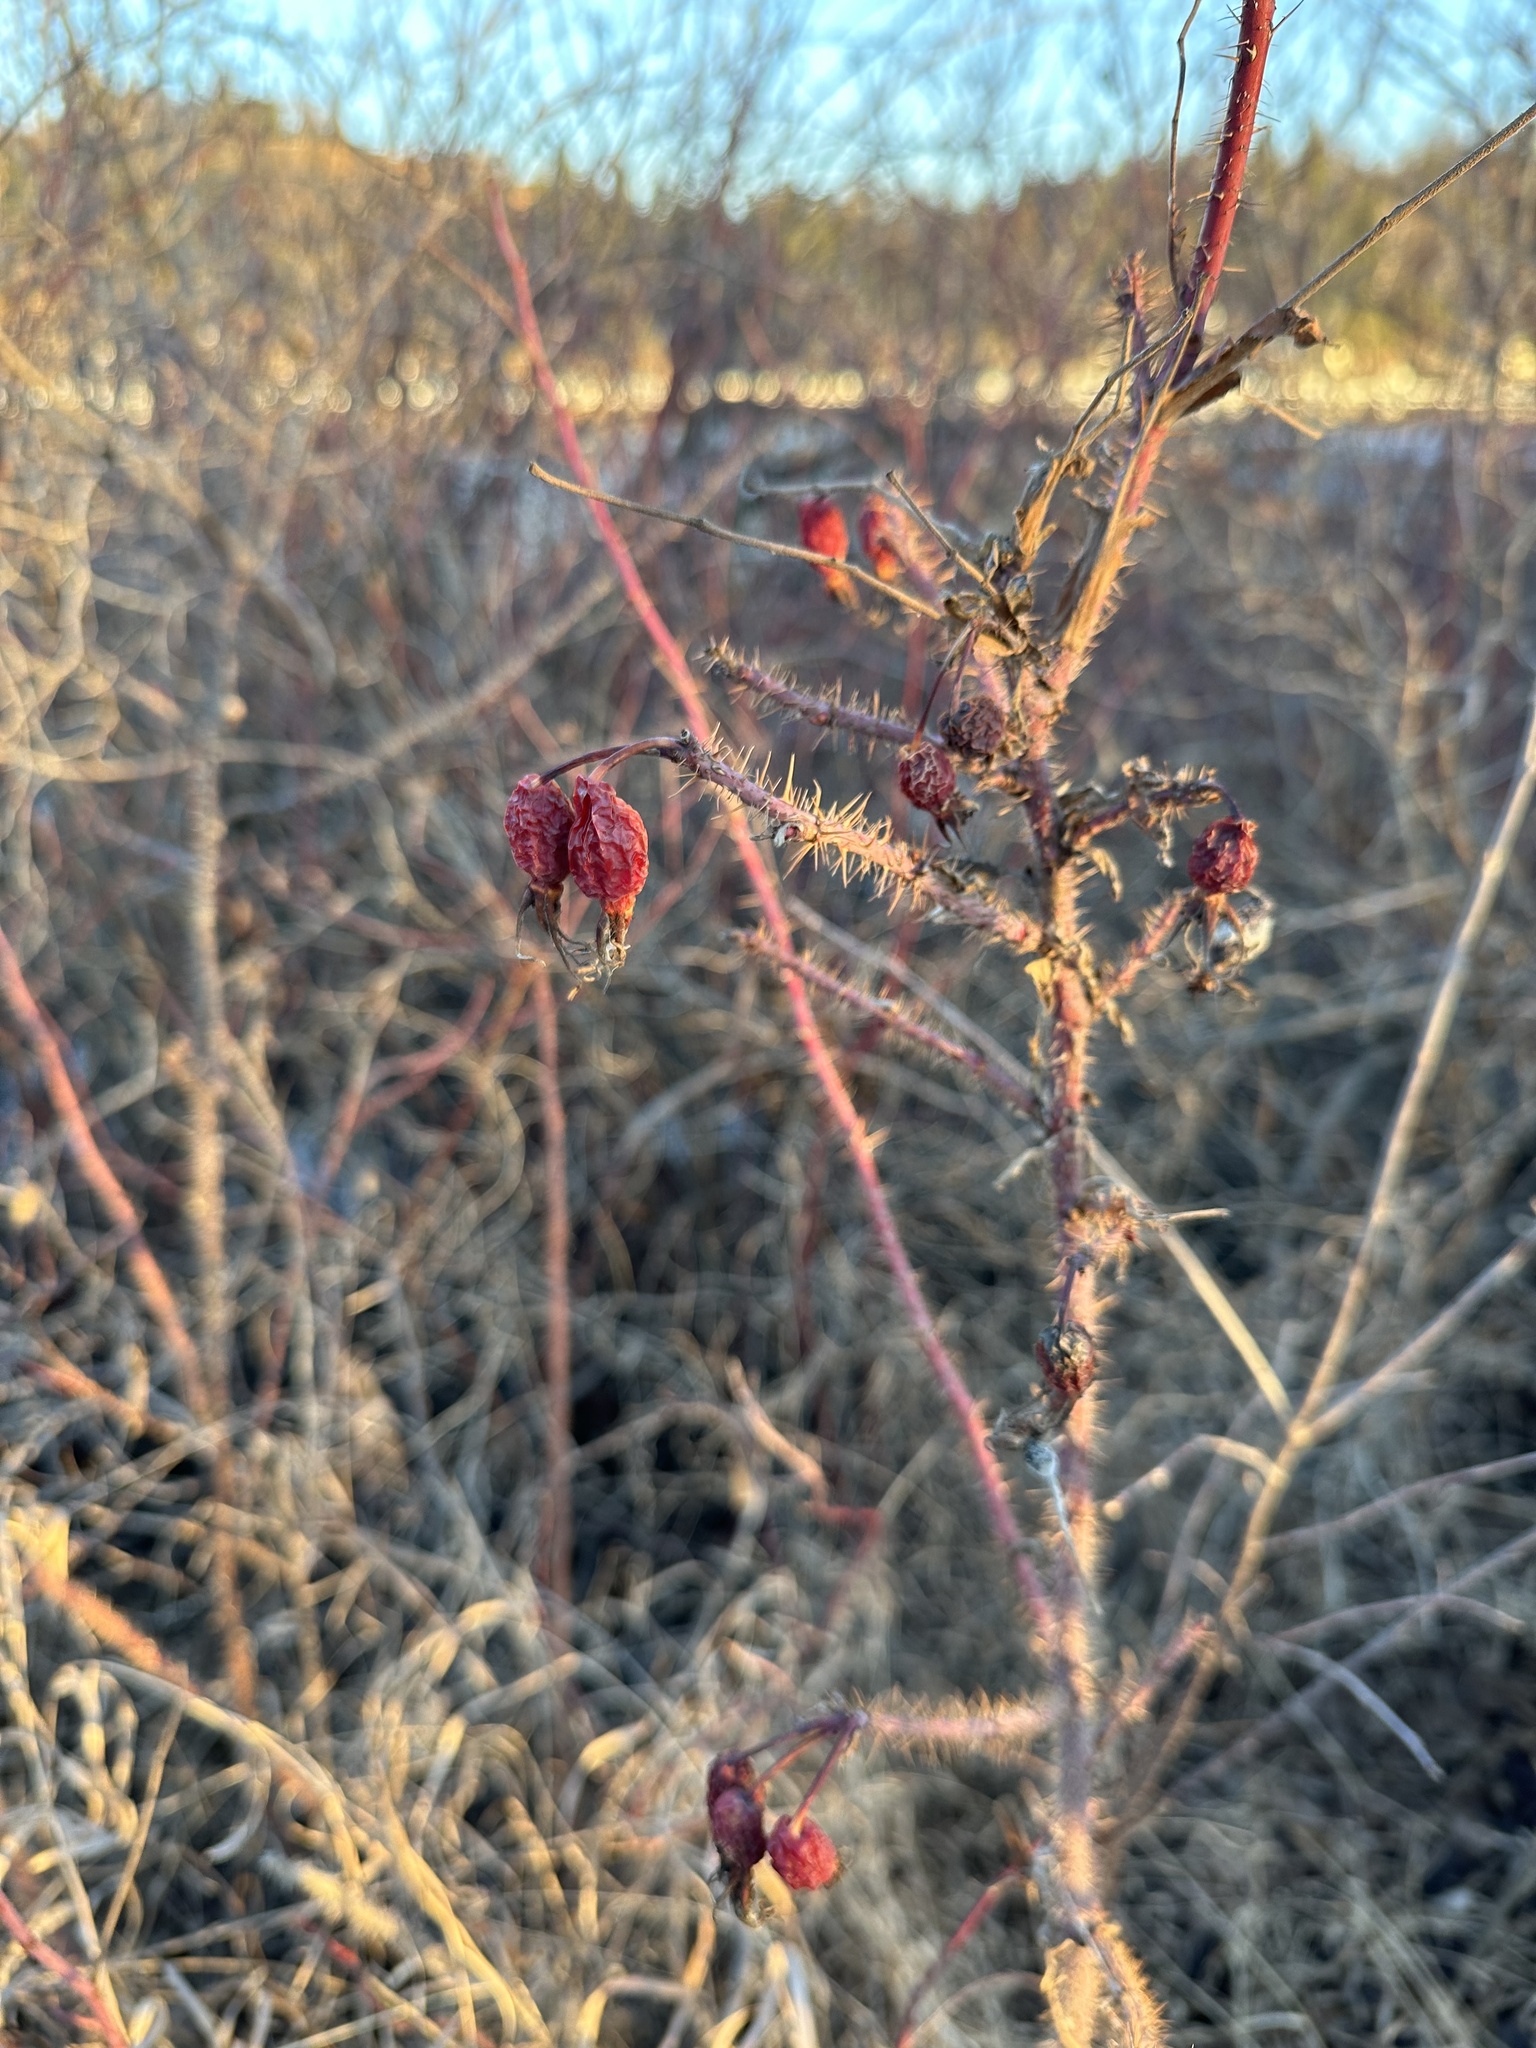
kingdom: Plantae
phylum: Tracheophyta
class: Magnoliopsida
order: Rosales
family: Rosaceae
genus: Rosa
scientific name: Rosa acicularis
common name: Prickly rose
